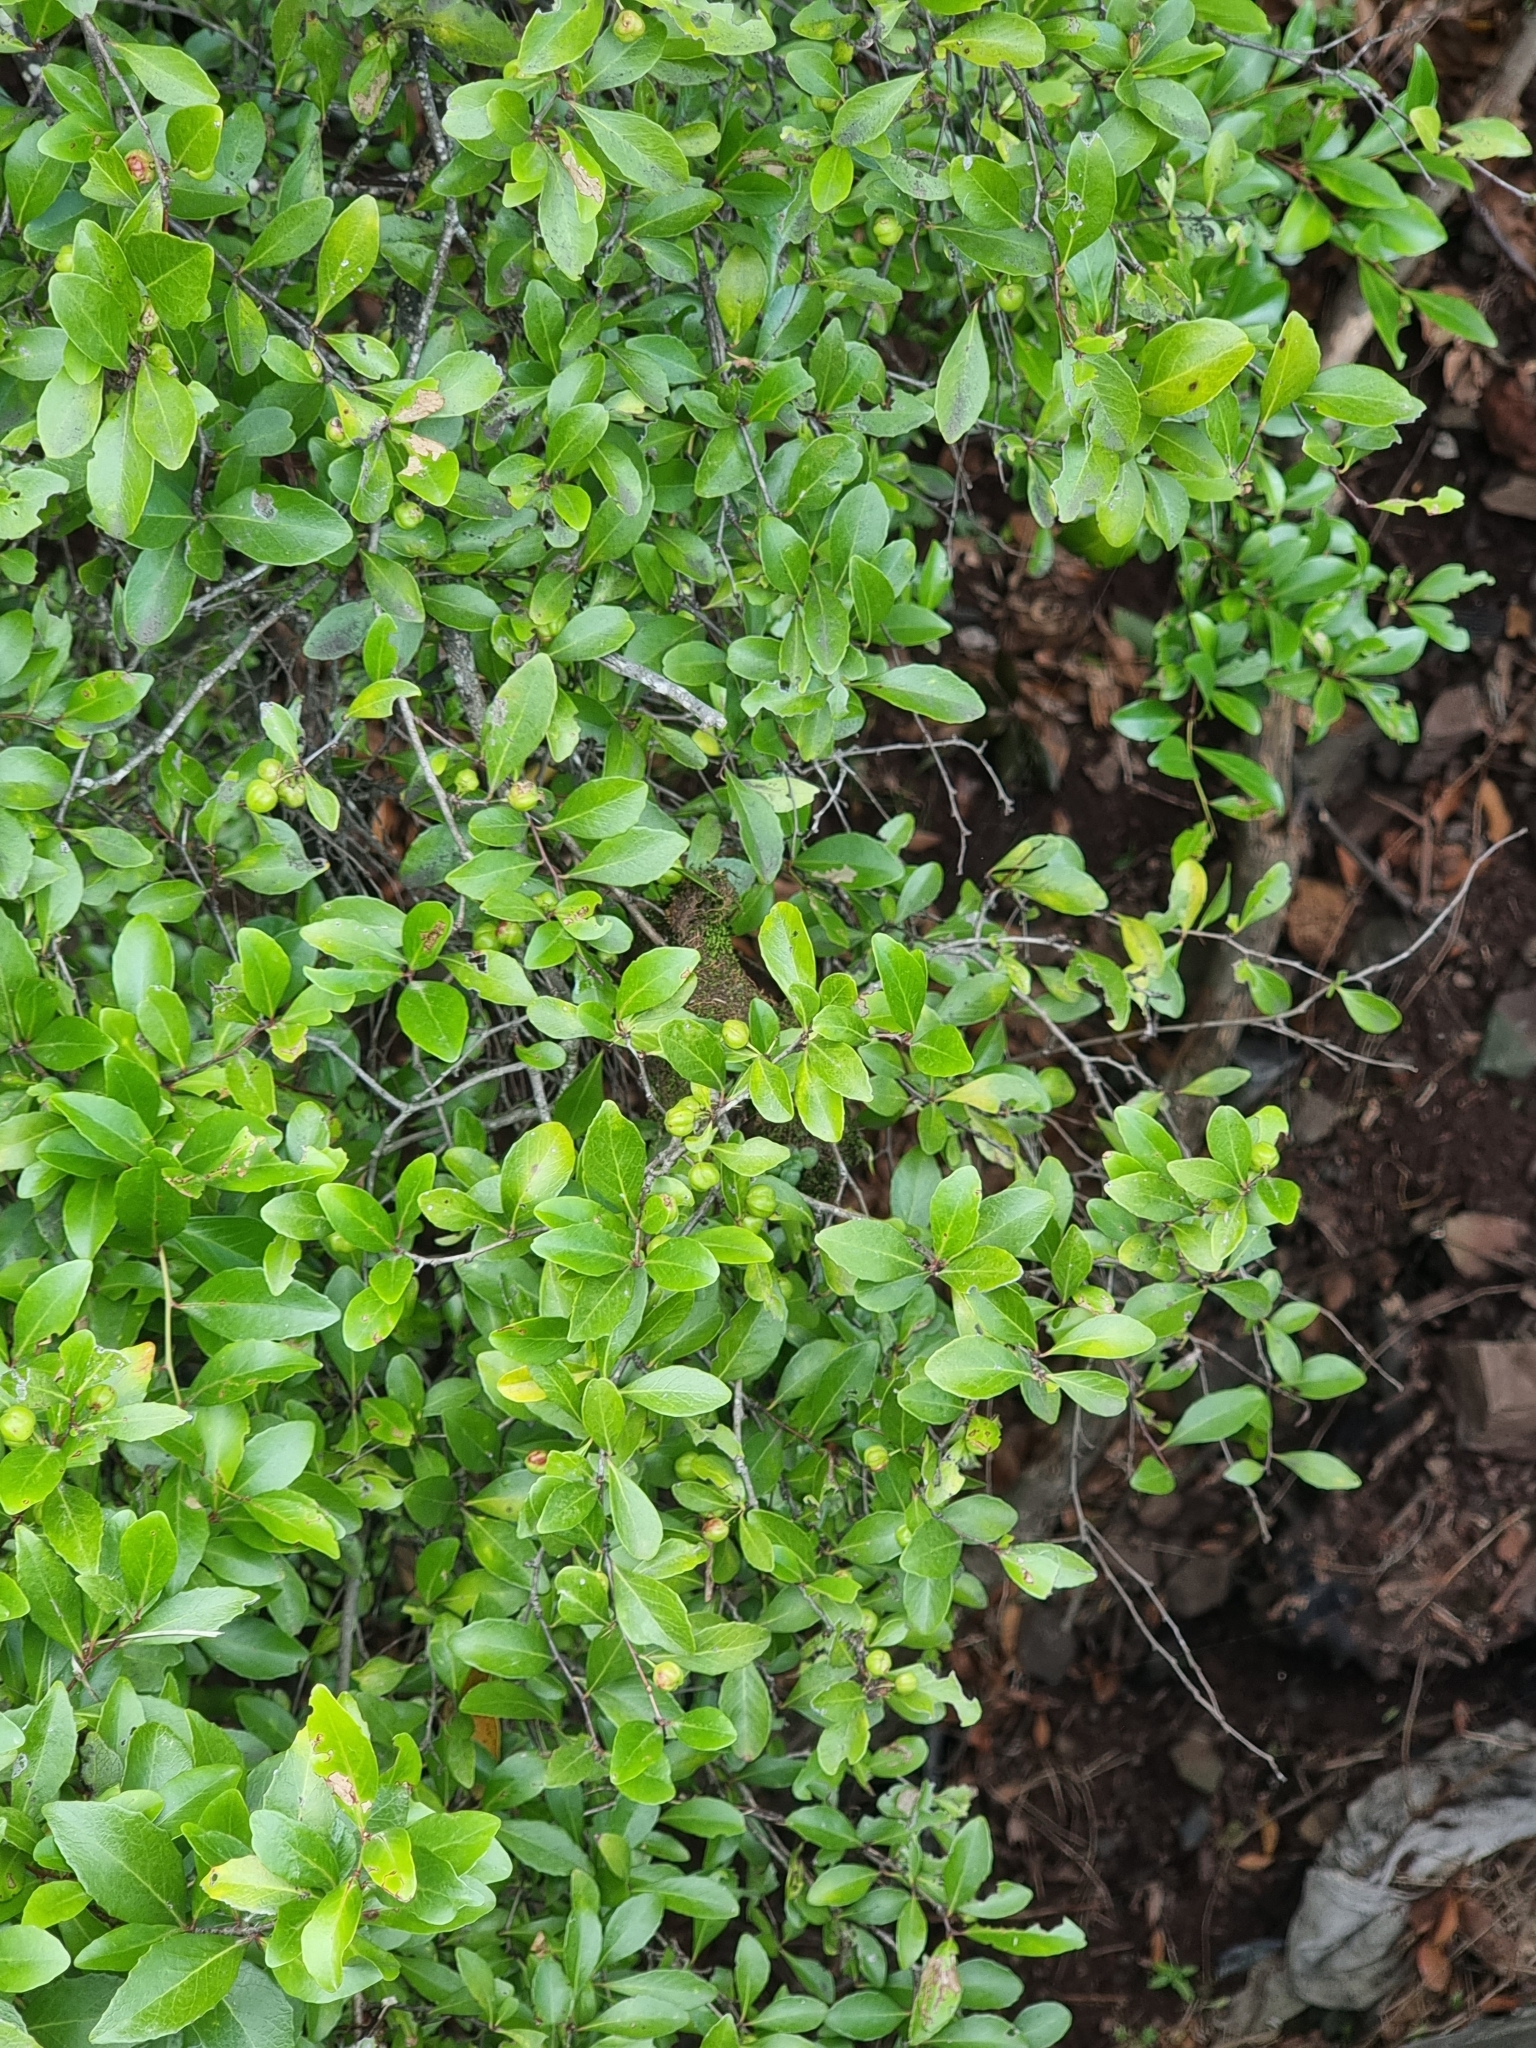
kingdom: Plantae
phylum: Tracheophyta
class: Magnoliopsida
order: Celastrales
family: Celastraceae
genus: Gymnosporia
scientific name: Gymnosporia dryandri
